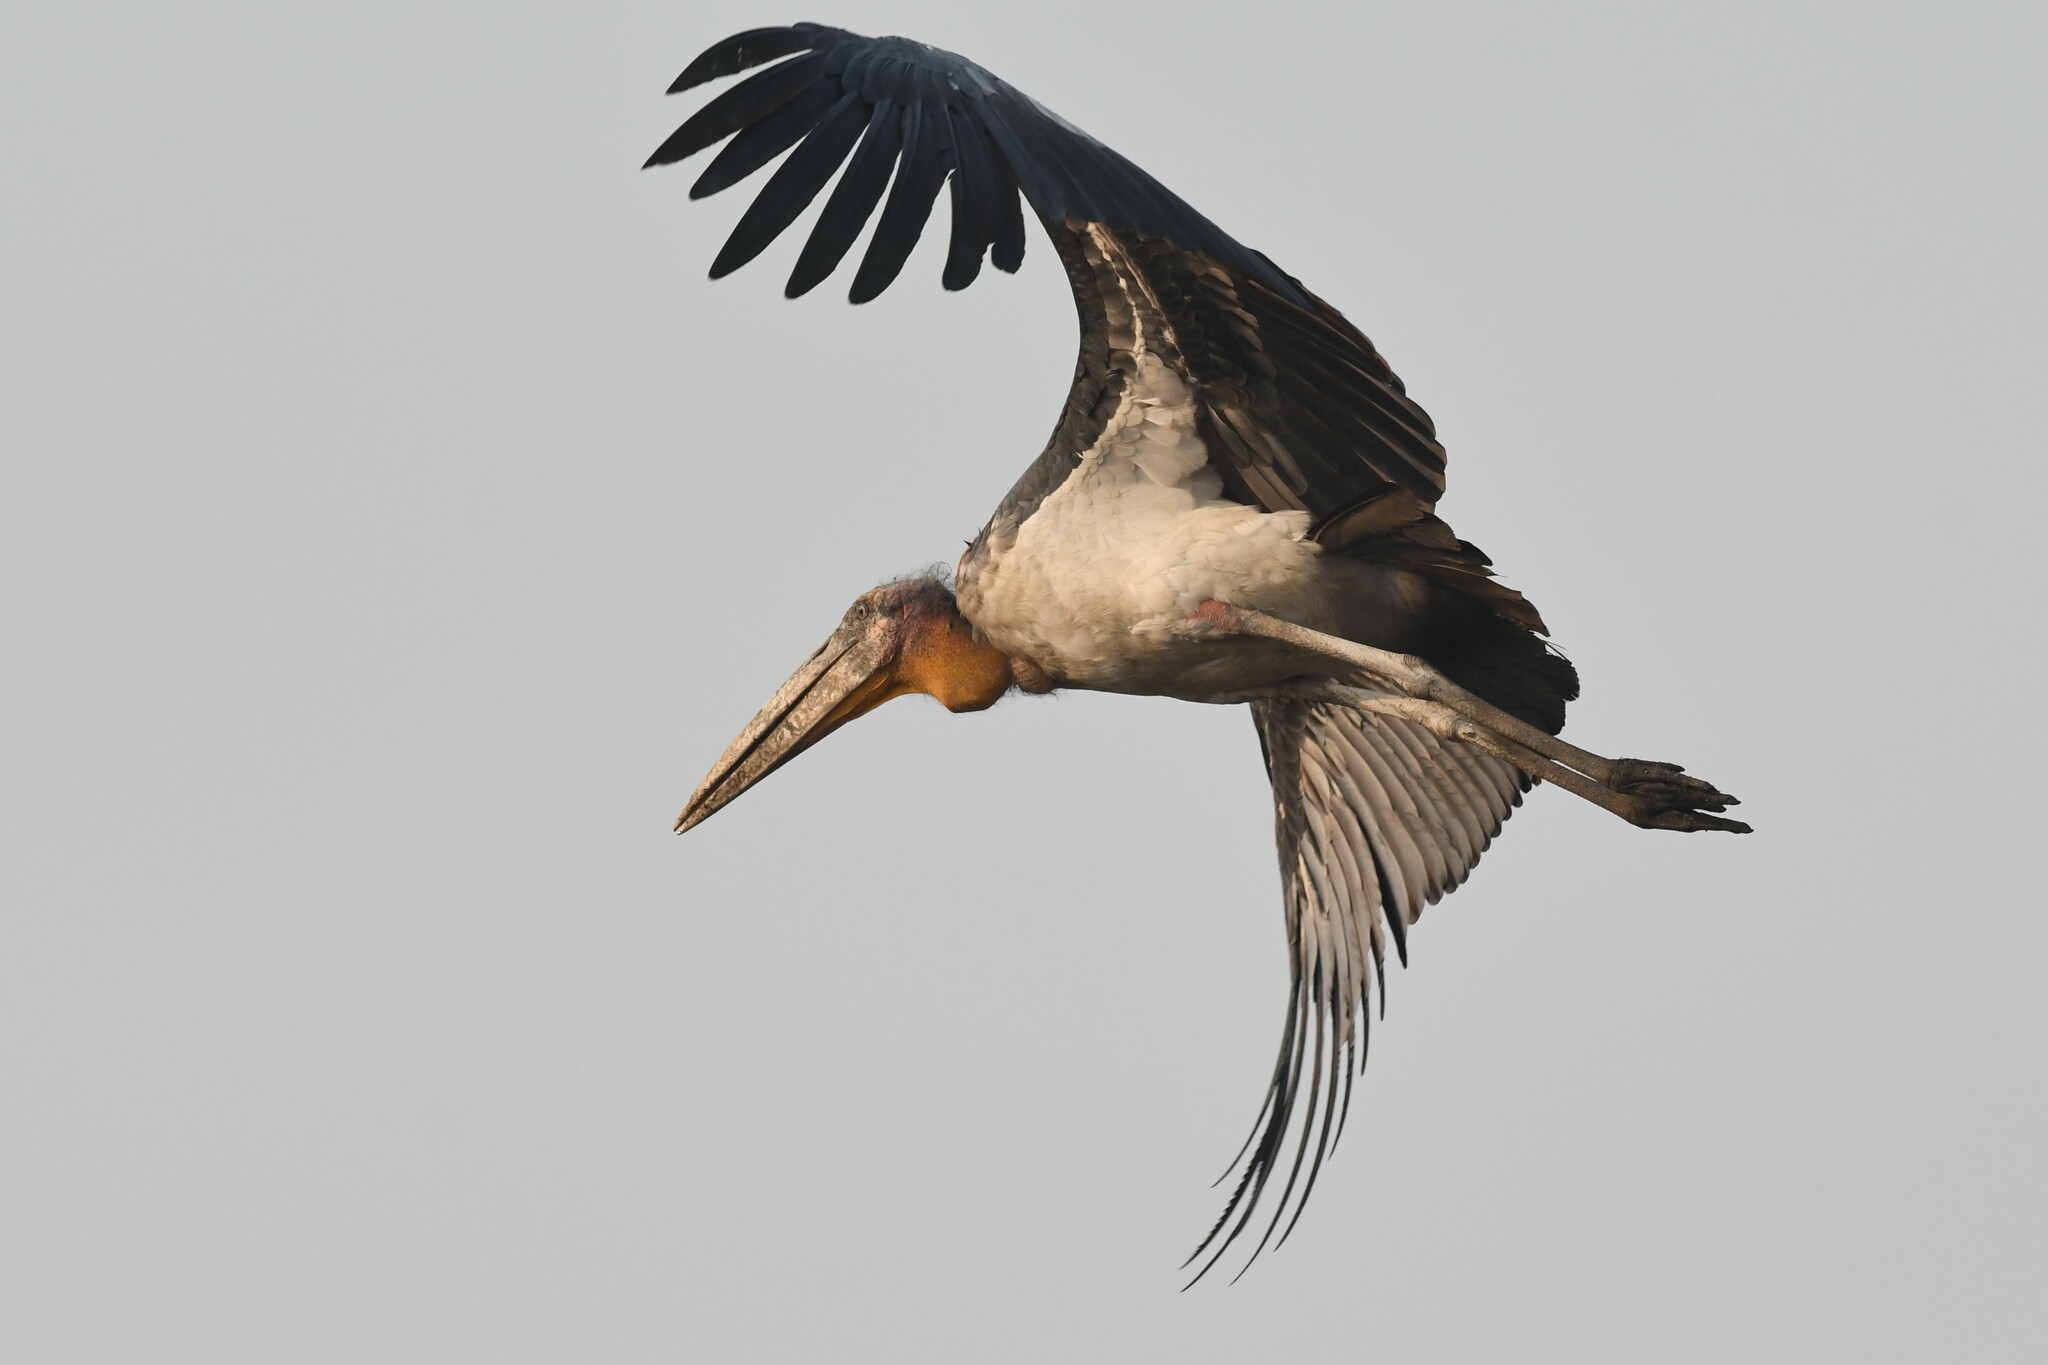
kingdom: Animalia
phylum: Chordata
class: Aves
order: Ciconiiformes
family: Ciconiidae
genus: Leptoptilos
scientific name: Leptoptilos dubius
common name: Greater adjutant
